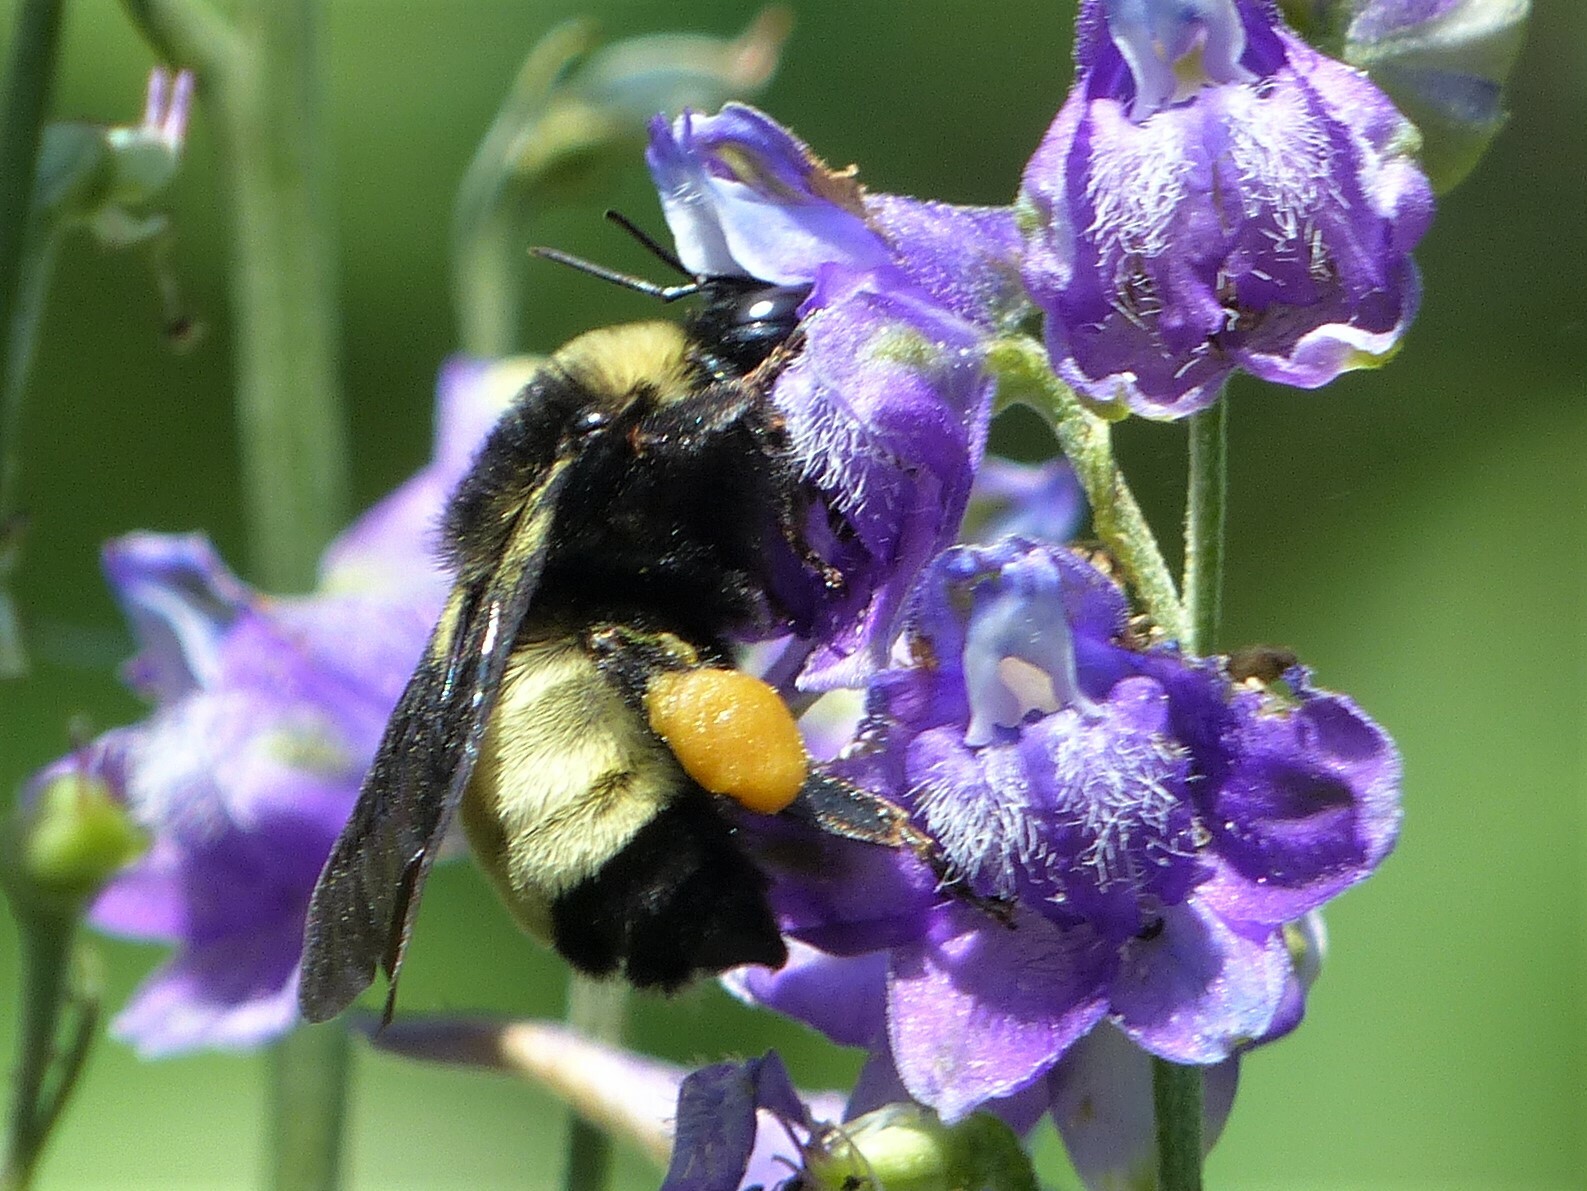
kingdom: Animalia
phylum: Arthropoda
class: Insecta
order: Hymenoptera
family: Apidae
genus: Bombus
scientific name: Bombus pensylvanicus
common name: Bumble bee
